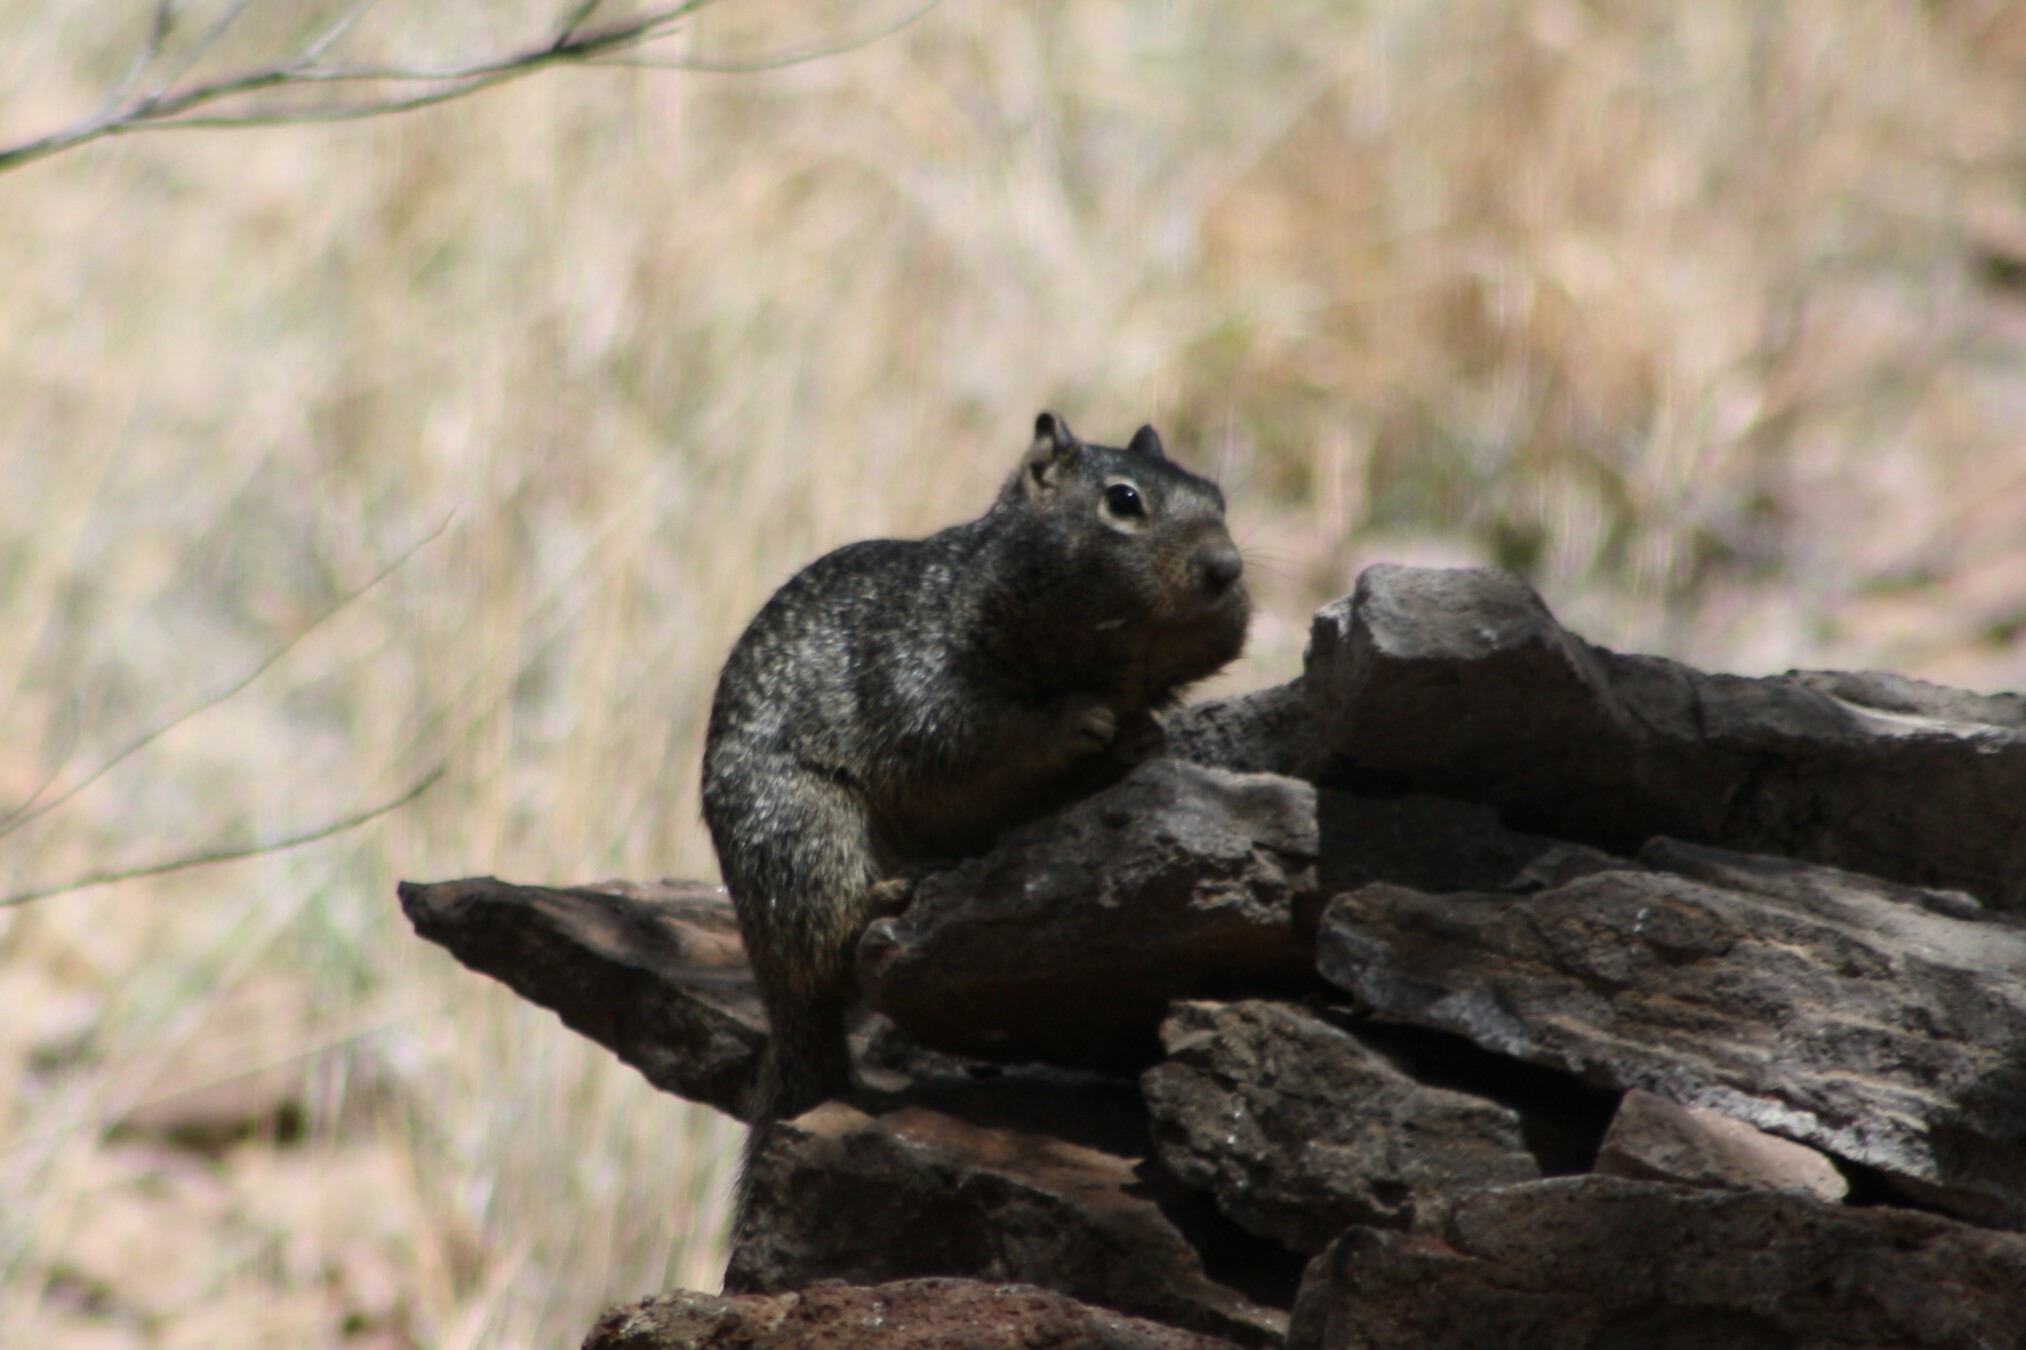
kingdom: Animalia
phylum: Chordata
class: Mammalia
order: Rodentia
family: Sciuridae
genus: Otospermophilus
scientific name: Otospermophilus variegatus
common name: Rock squirrel
